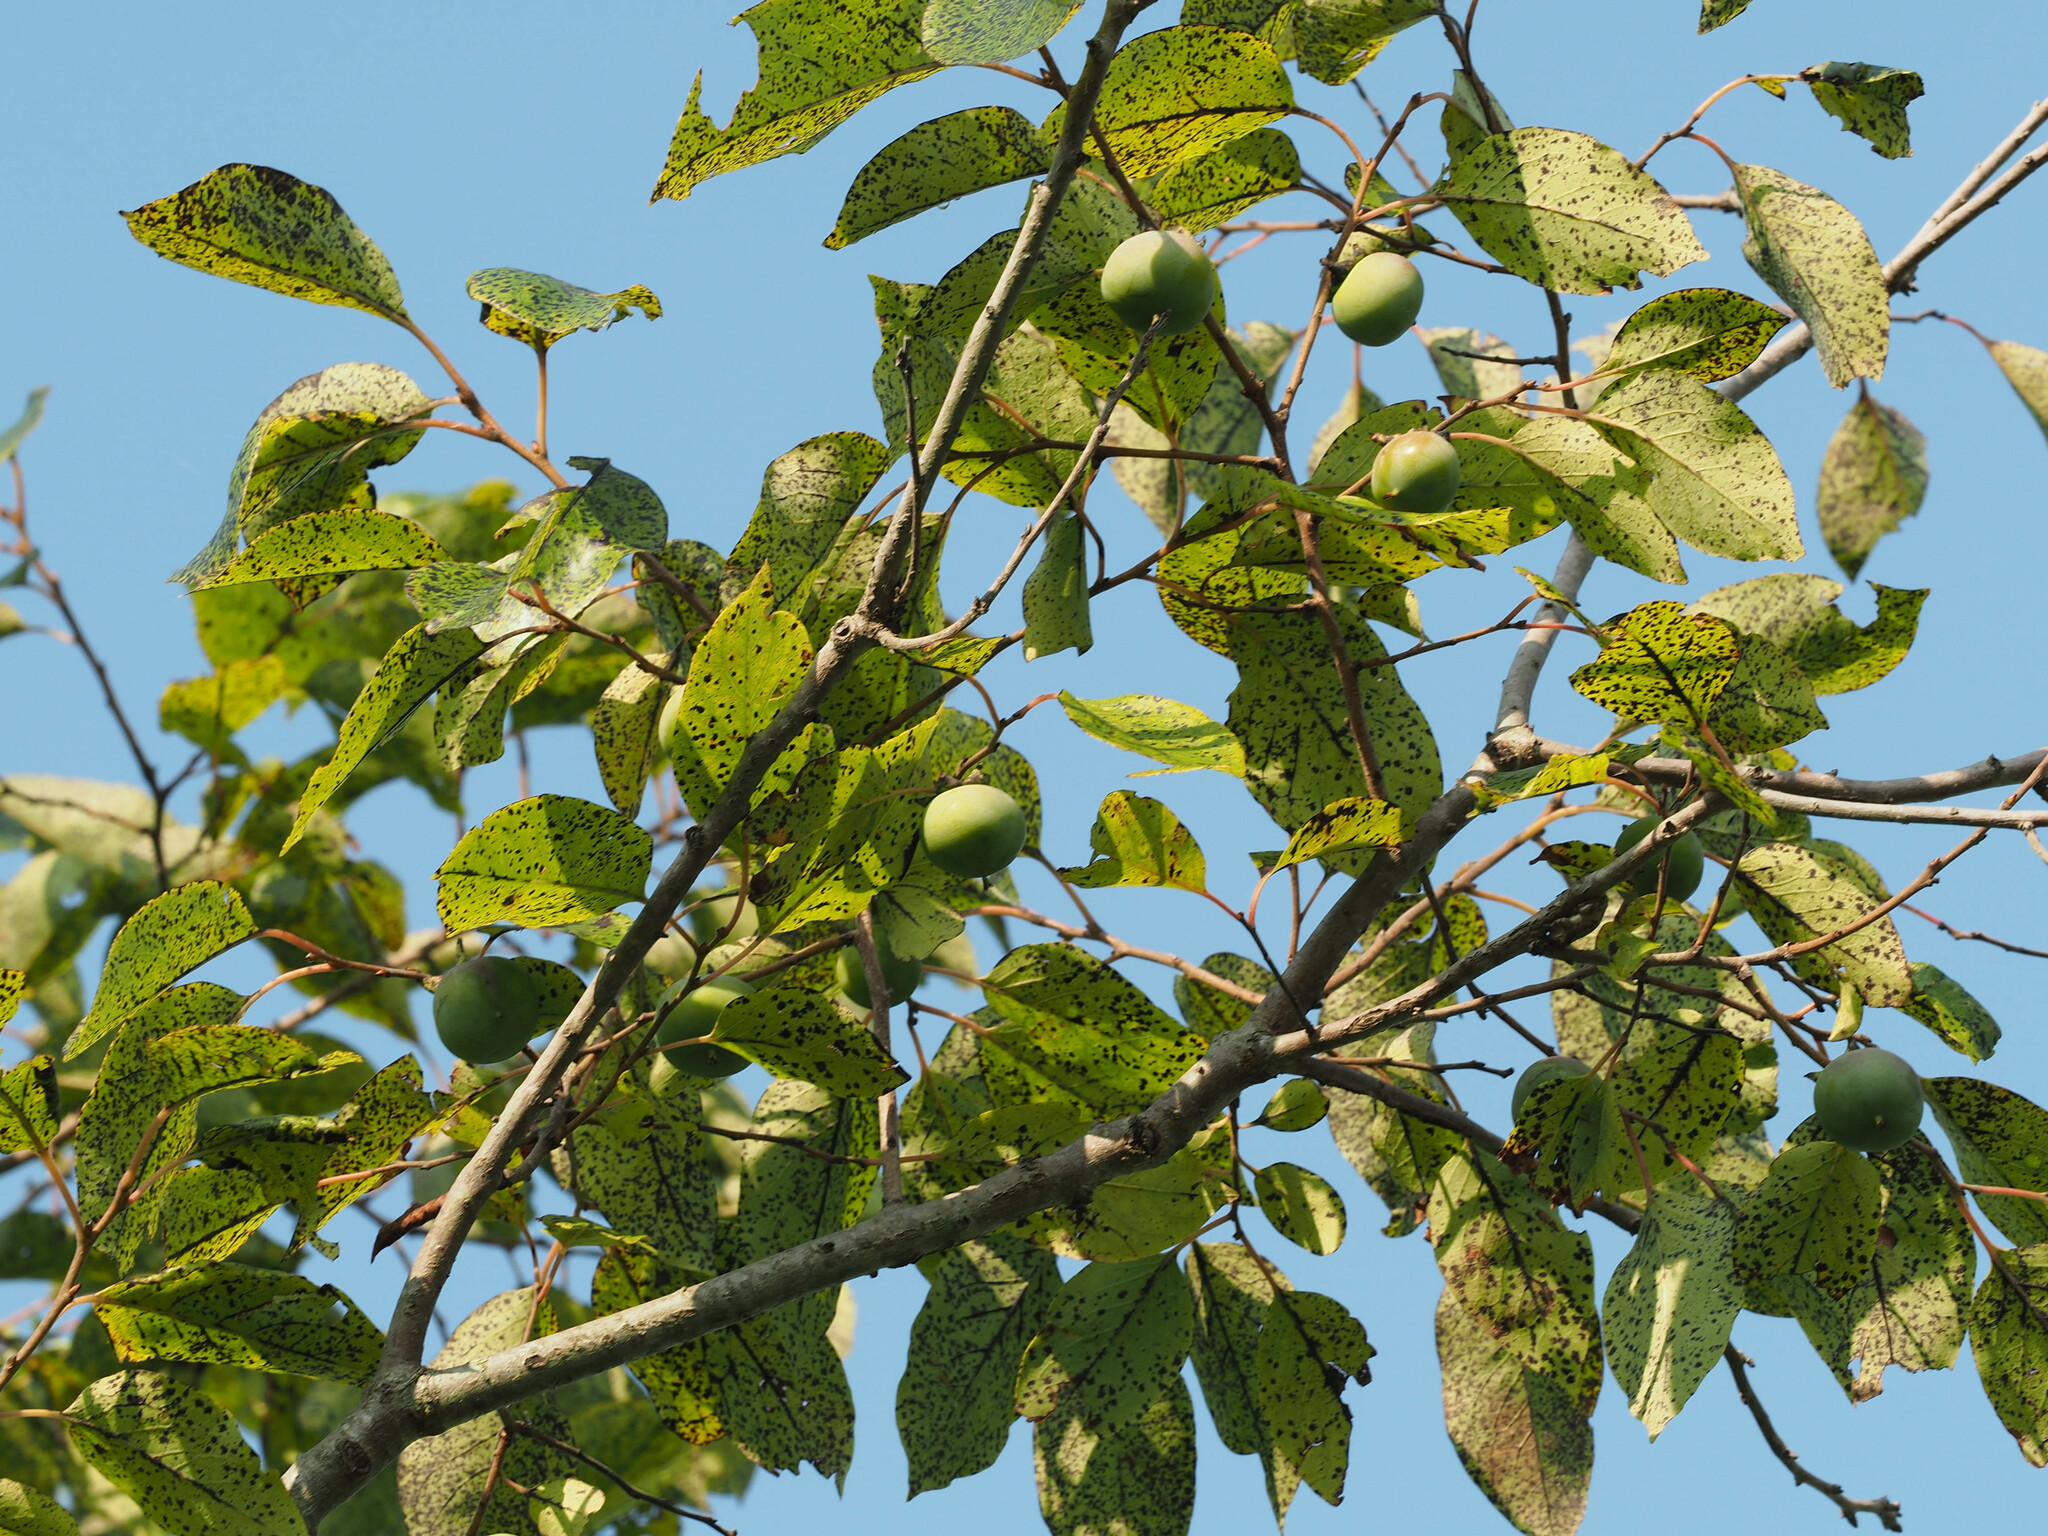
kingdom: Plantae
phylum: Tracheophyta
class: Magnoliopsida
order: Ericales
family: Ebenaceae
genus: Diospyros
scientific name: Diospyros virginiana
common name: Persimmon
